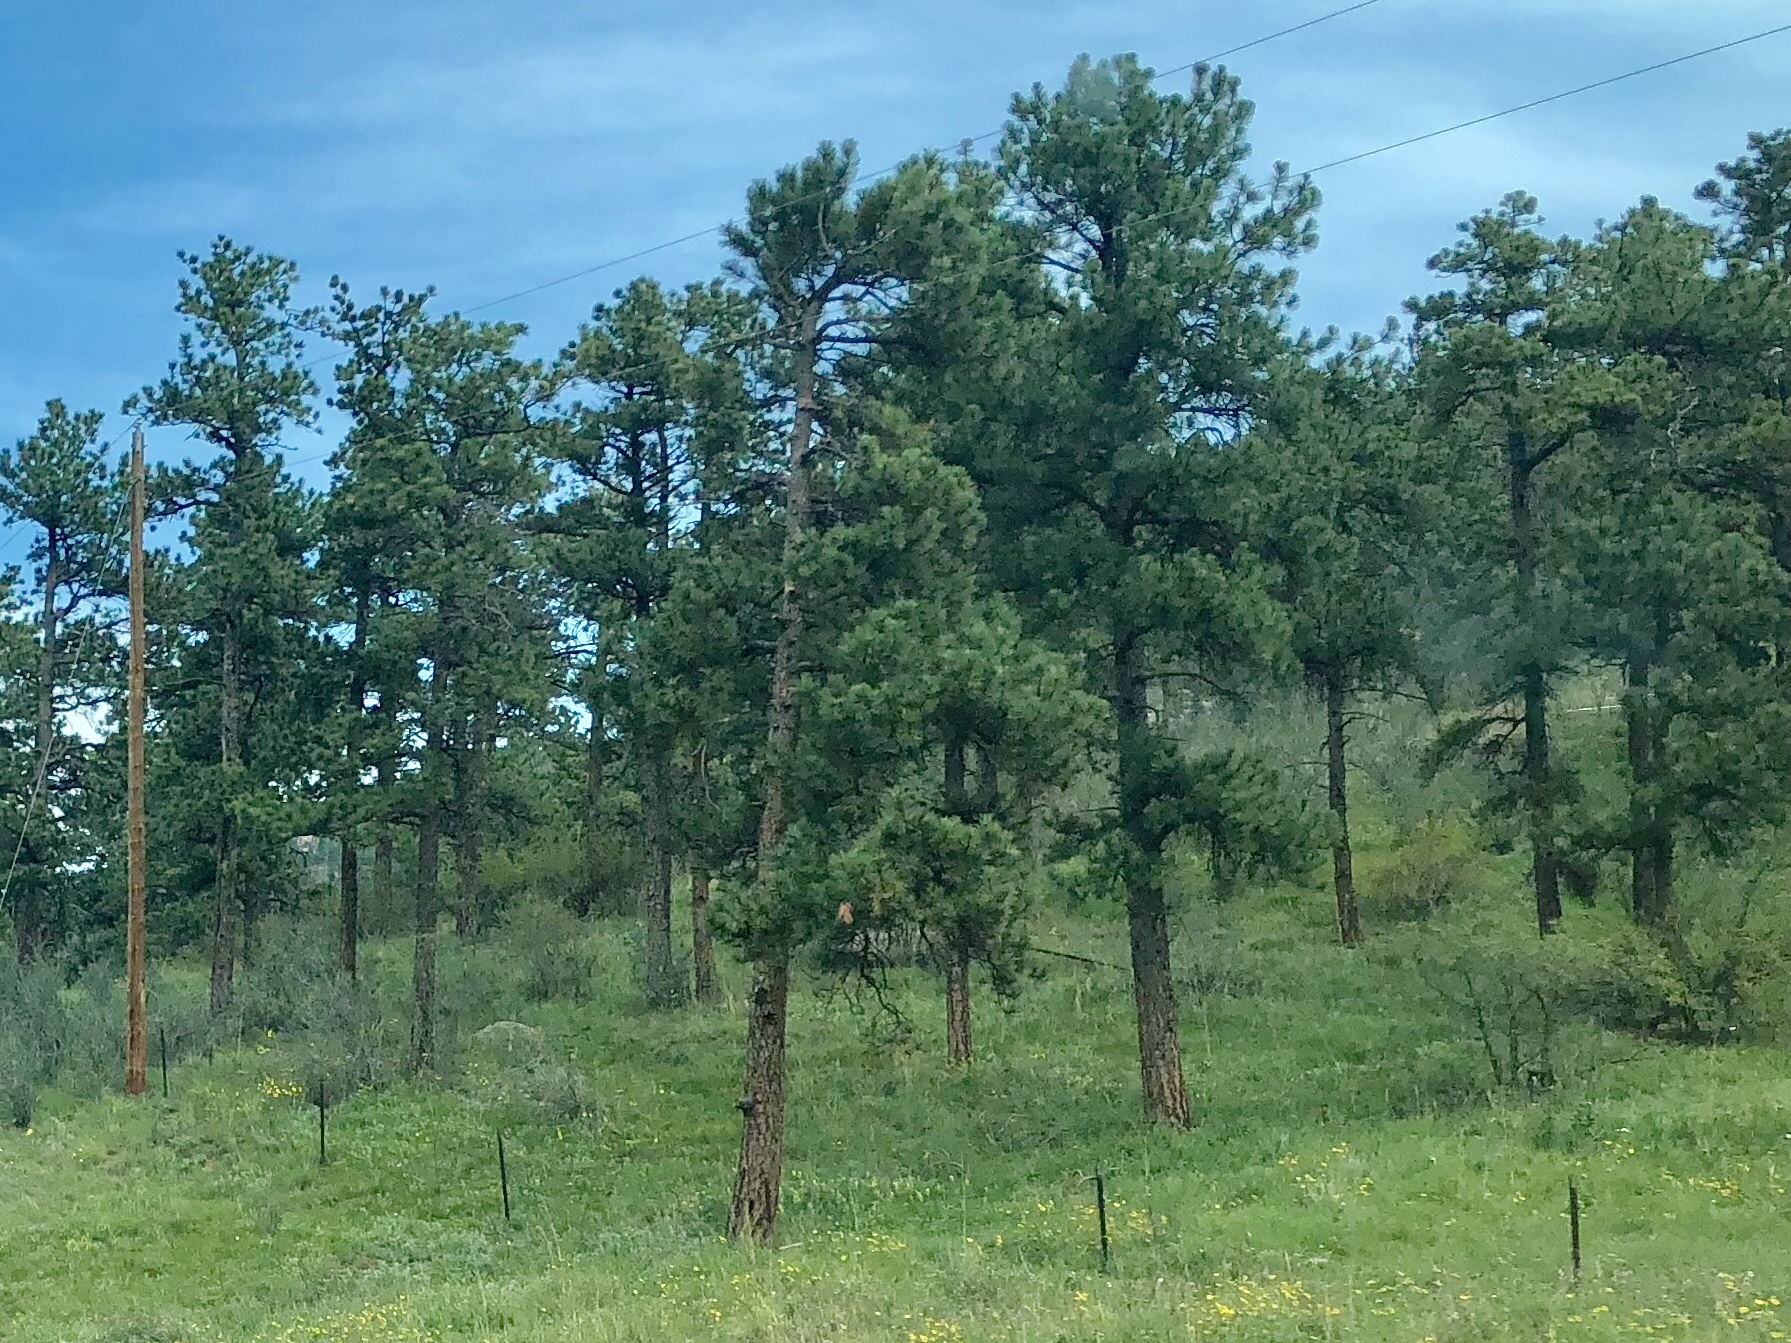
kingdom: Plantae
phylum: Tracheophyta
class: Pinopsida
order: Pinales
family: Pinaceae
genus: Pinus
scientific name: Pinus ponderosa
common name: Western yellow-pine
